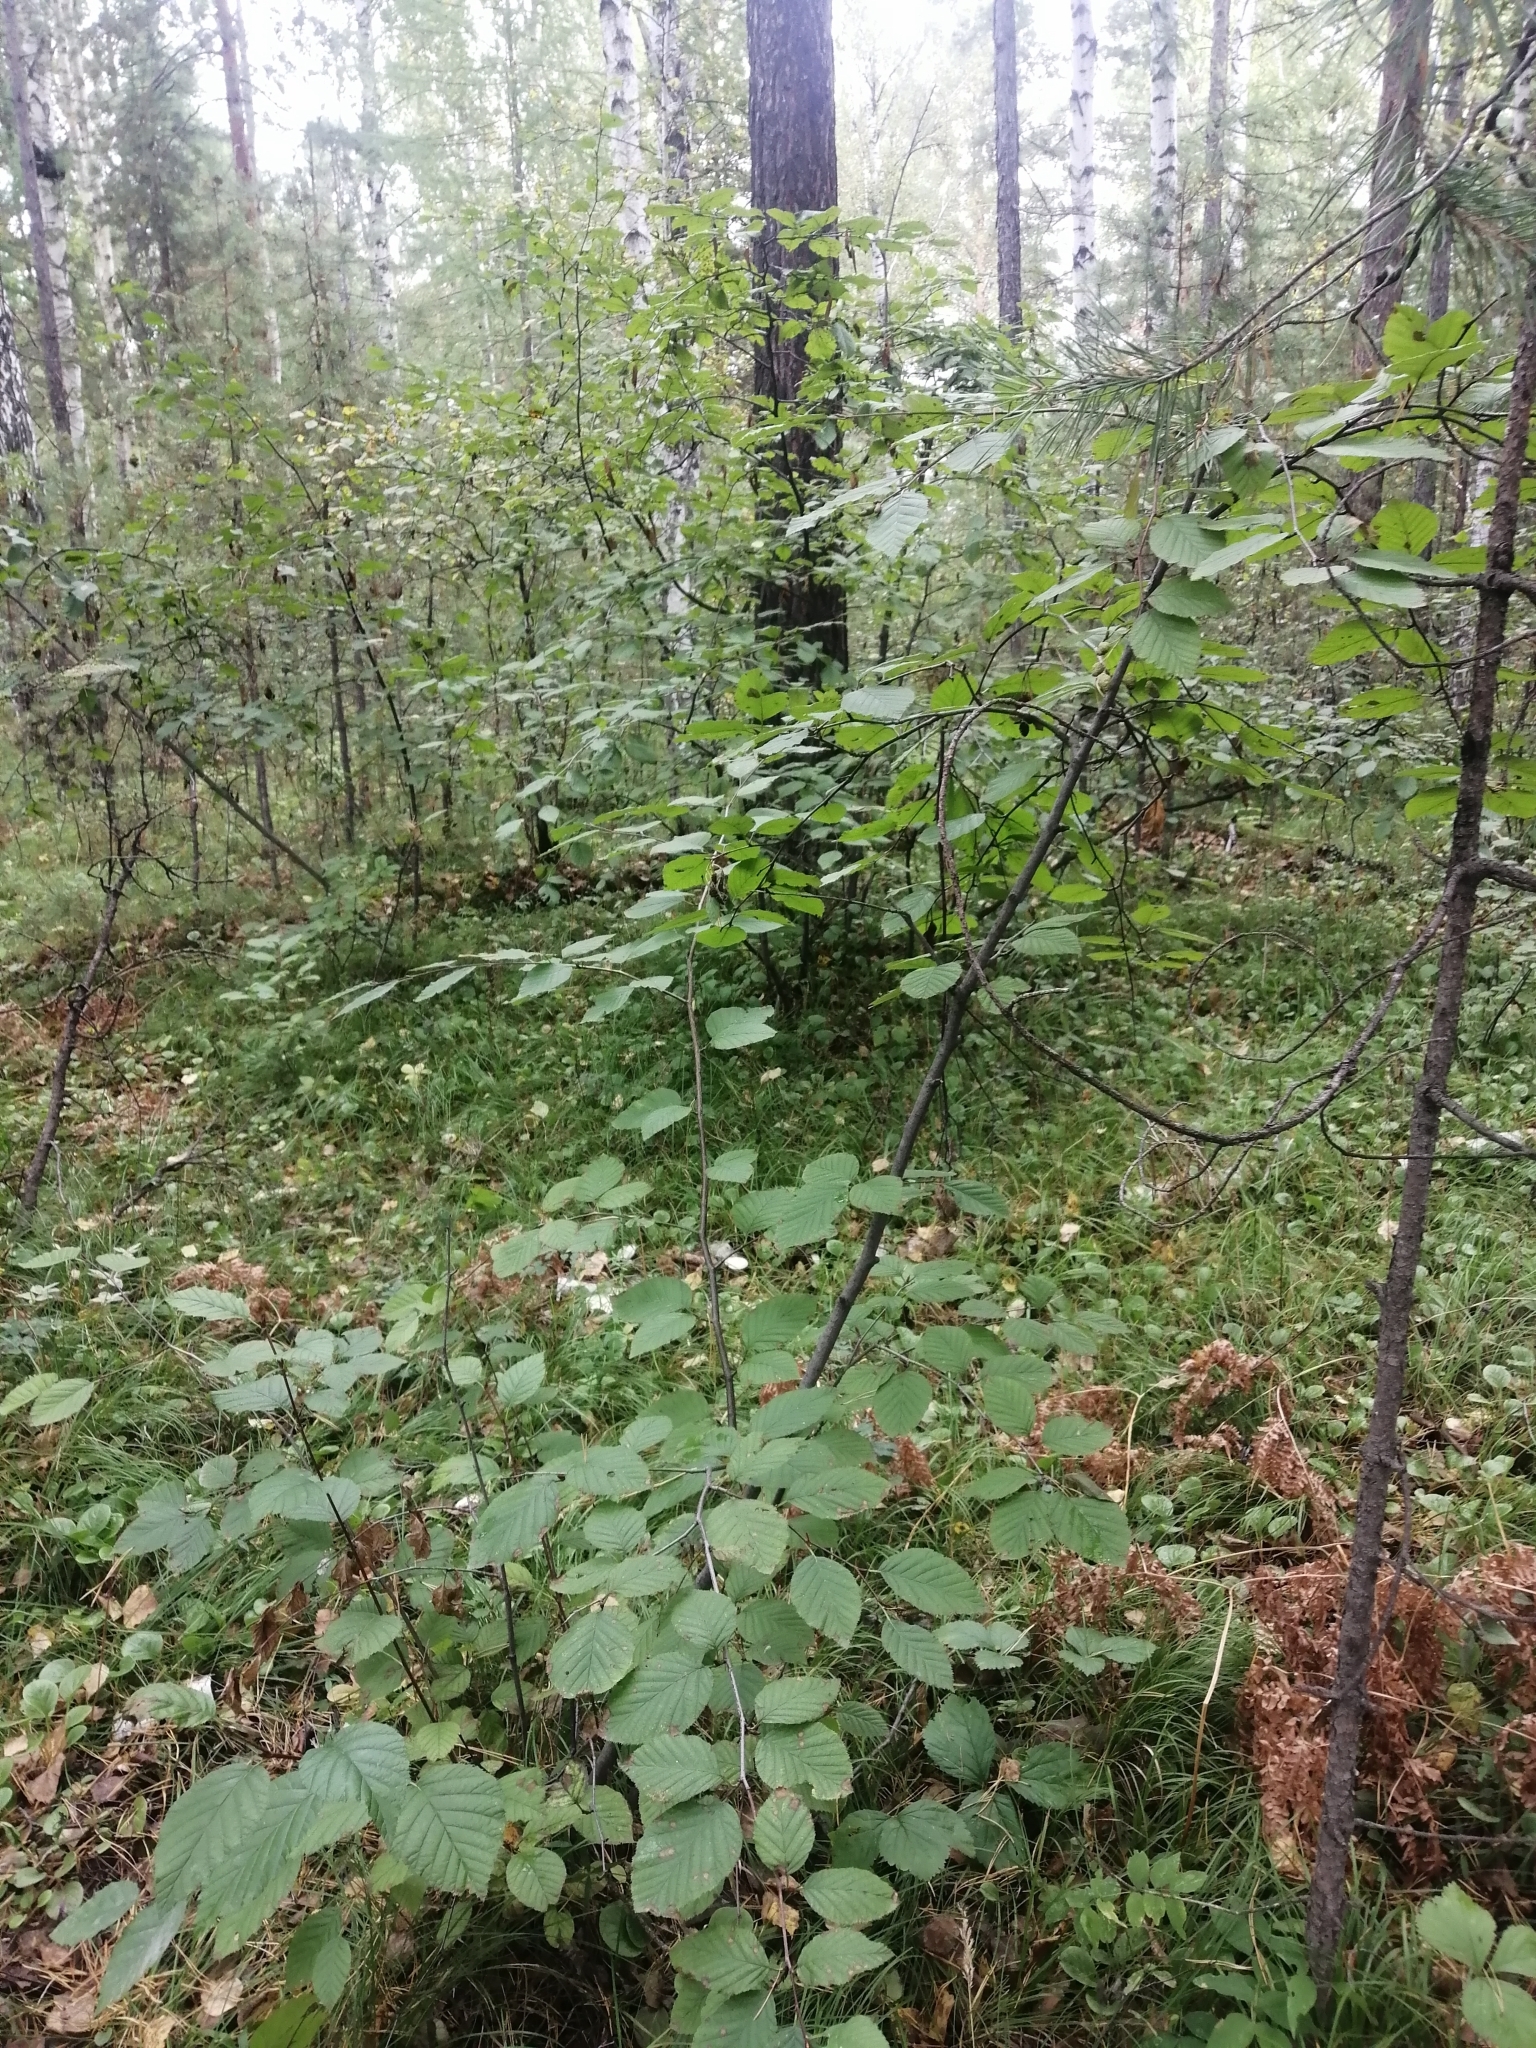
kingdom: Plantae
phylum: Tracheophyta
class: Magnoliopsida
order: Fagales
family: Betulaceae
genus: Alnus
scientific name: Alnus alnobetula
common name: Green alder
